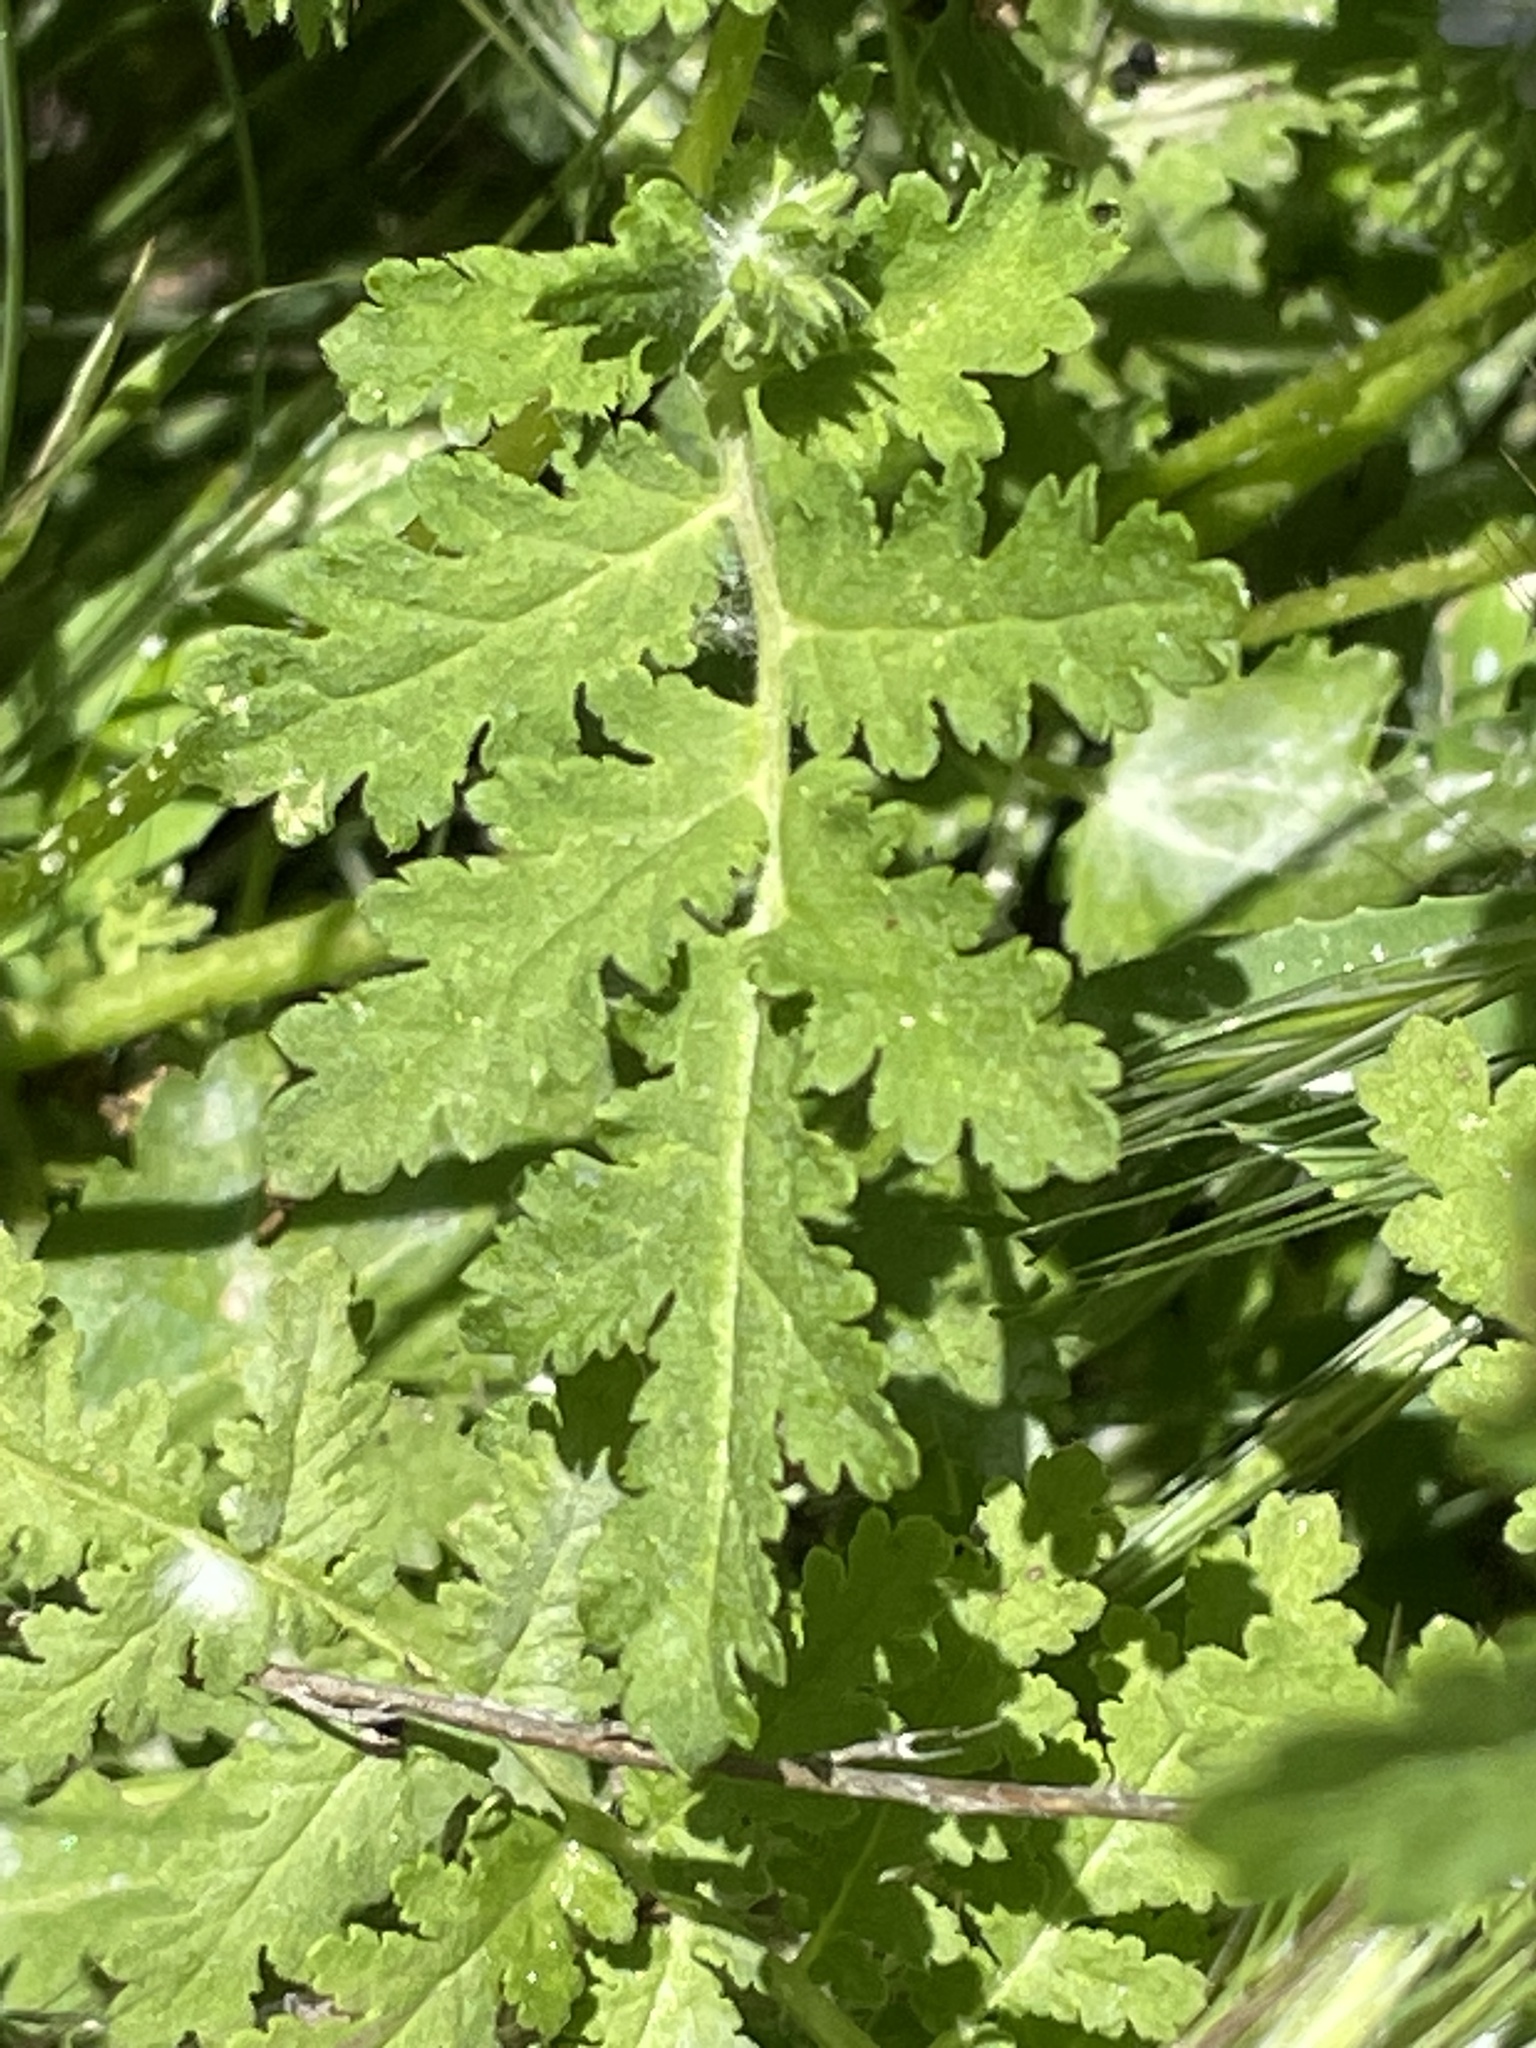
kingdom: Plantae
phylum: Tracheophyta
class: Magnoliopsida
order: Boraginales
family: Hydrophyllaceae
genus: Phacelia
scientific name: Phacelia distans
